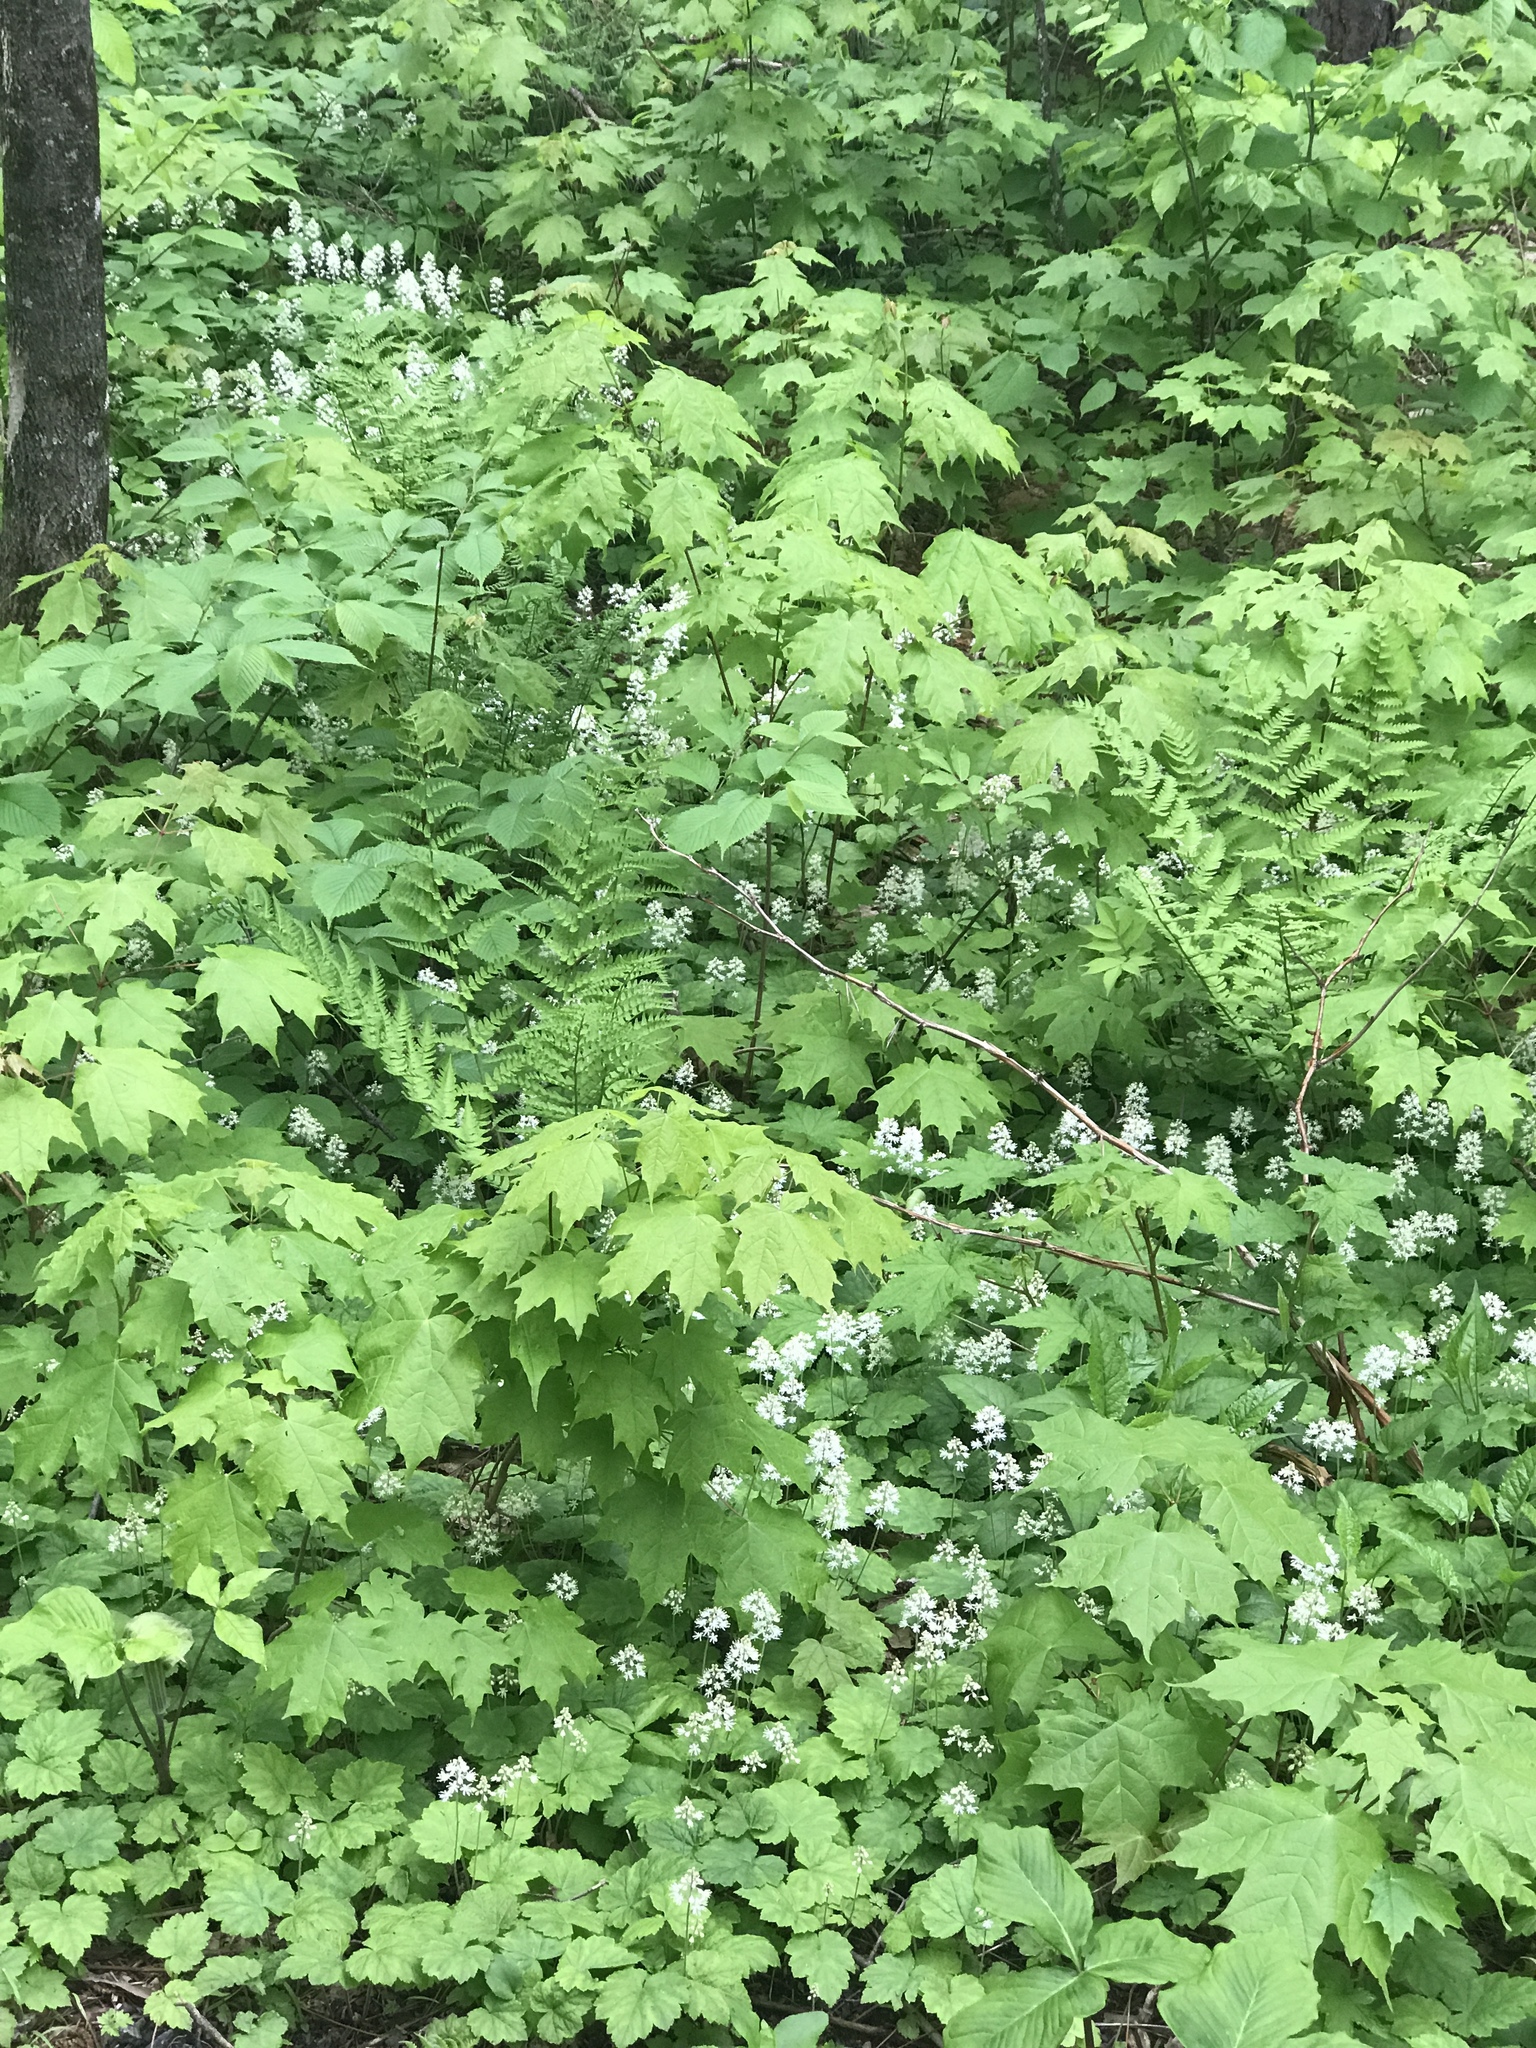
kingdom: Plantae
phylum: Tracheophyta
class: Magnoliopsida
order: Sapindales
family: Sapindaceae
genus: Acer
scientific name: Acer saccharum
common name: Sugar maple
